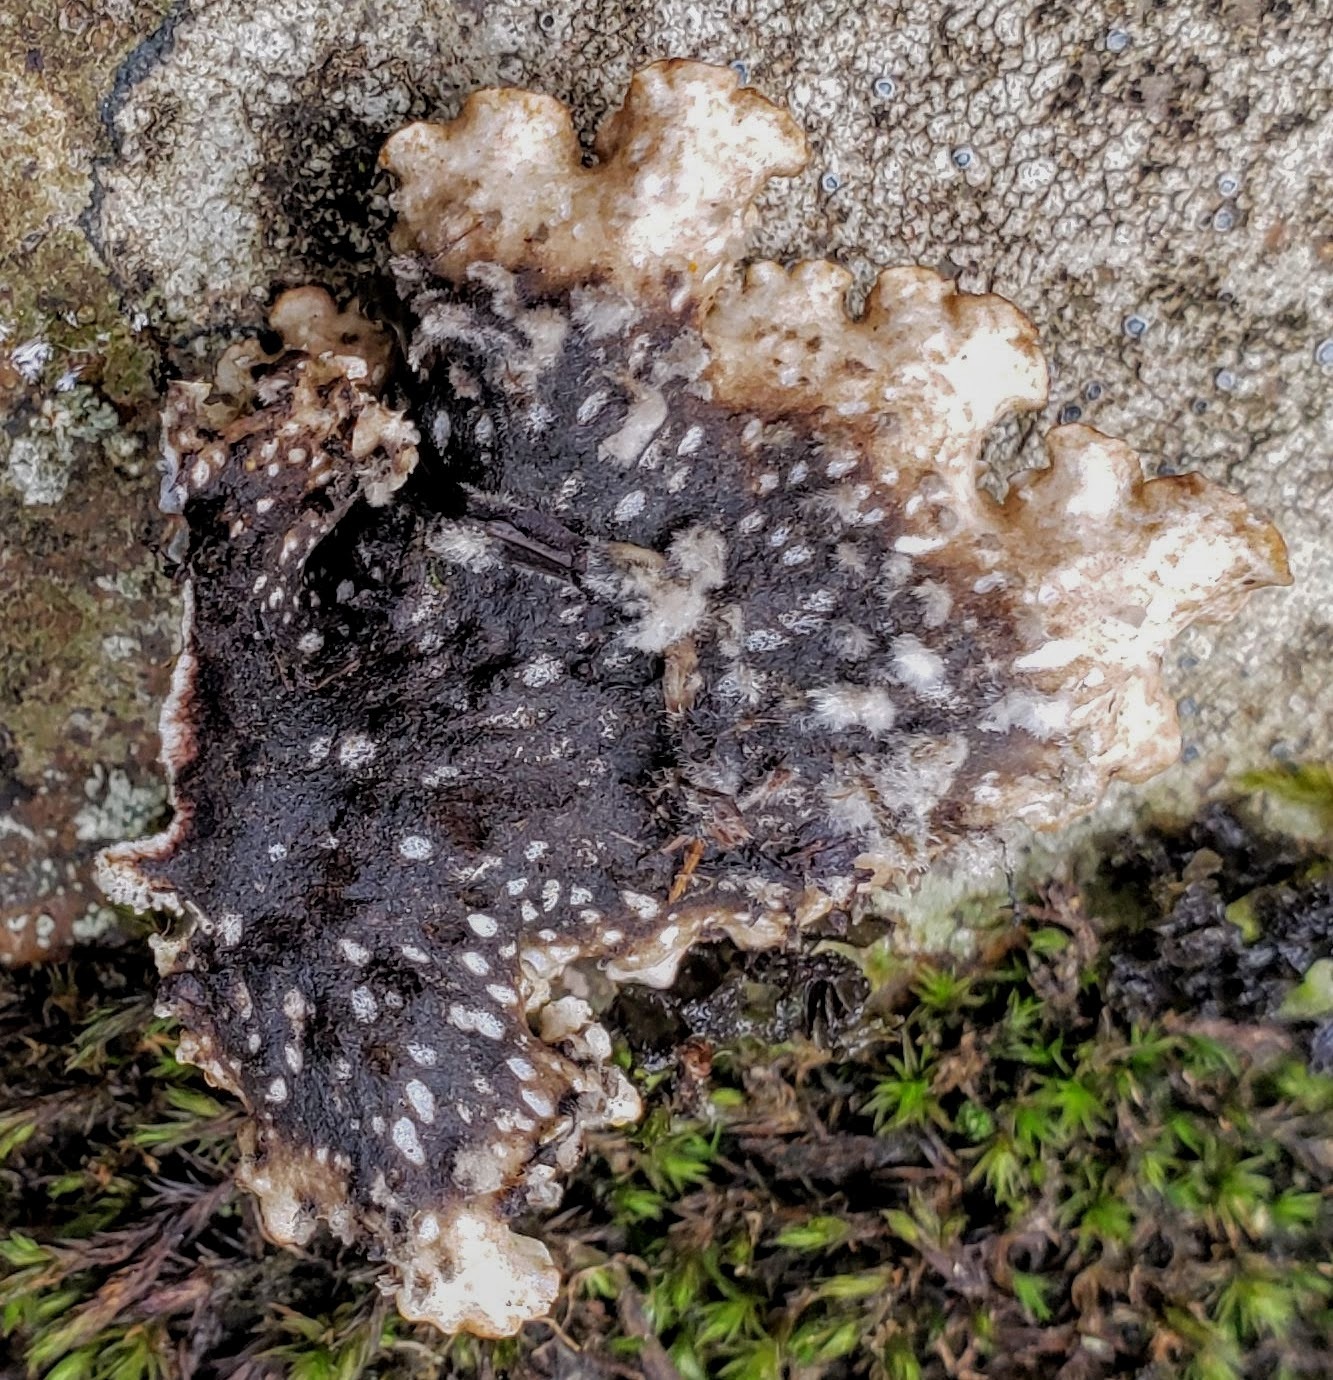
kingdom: Fungi
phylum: Ascomycota
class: Lecanoromycetes
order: Peltigerales
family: Peltigeraceae
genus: Peltigera
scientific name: Peltigera elisabethae
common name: Concentric pelt lichen
